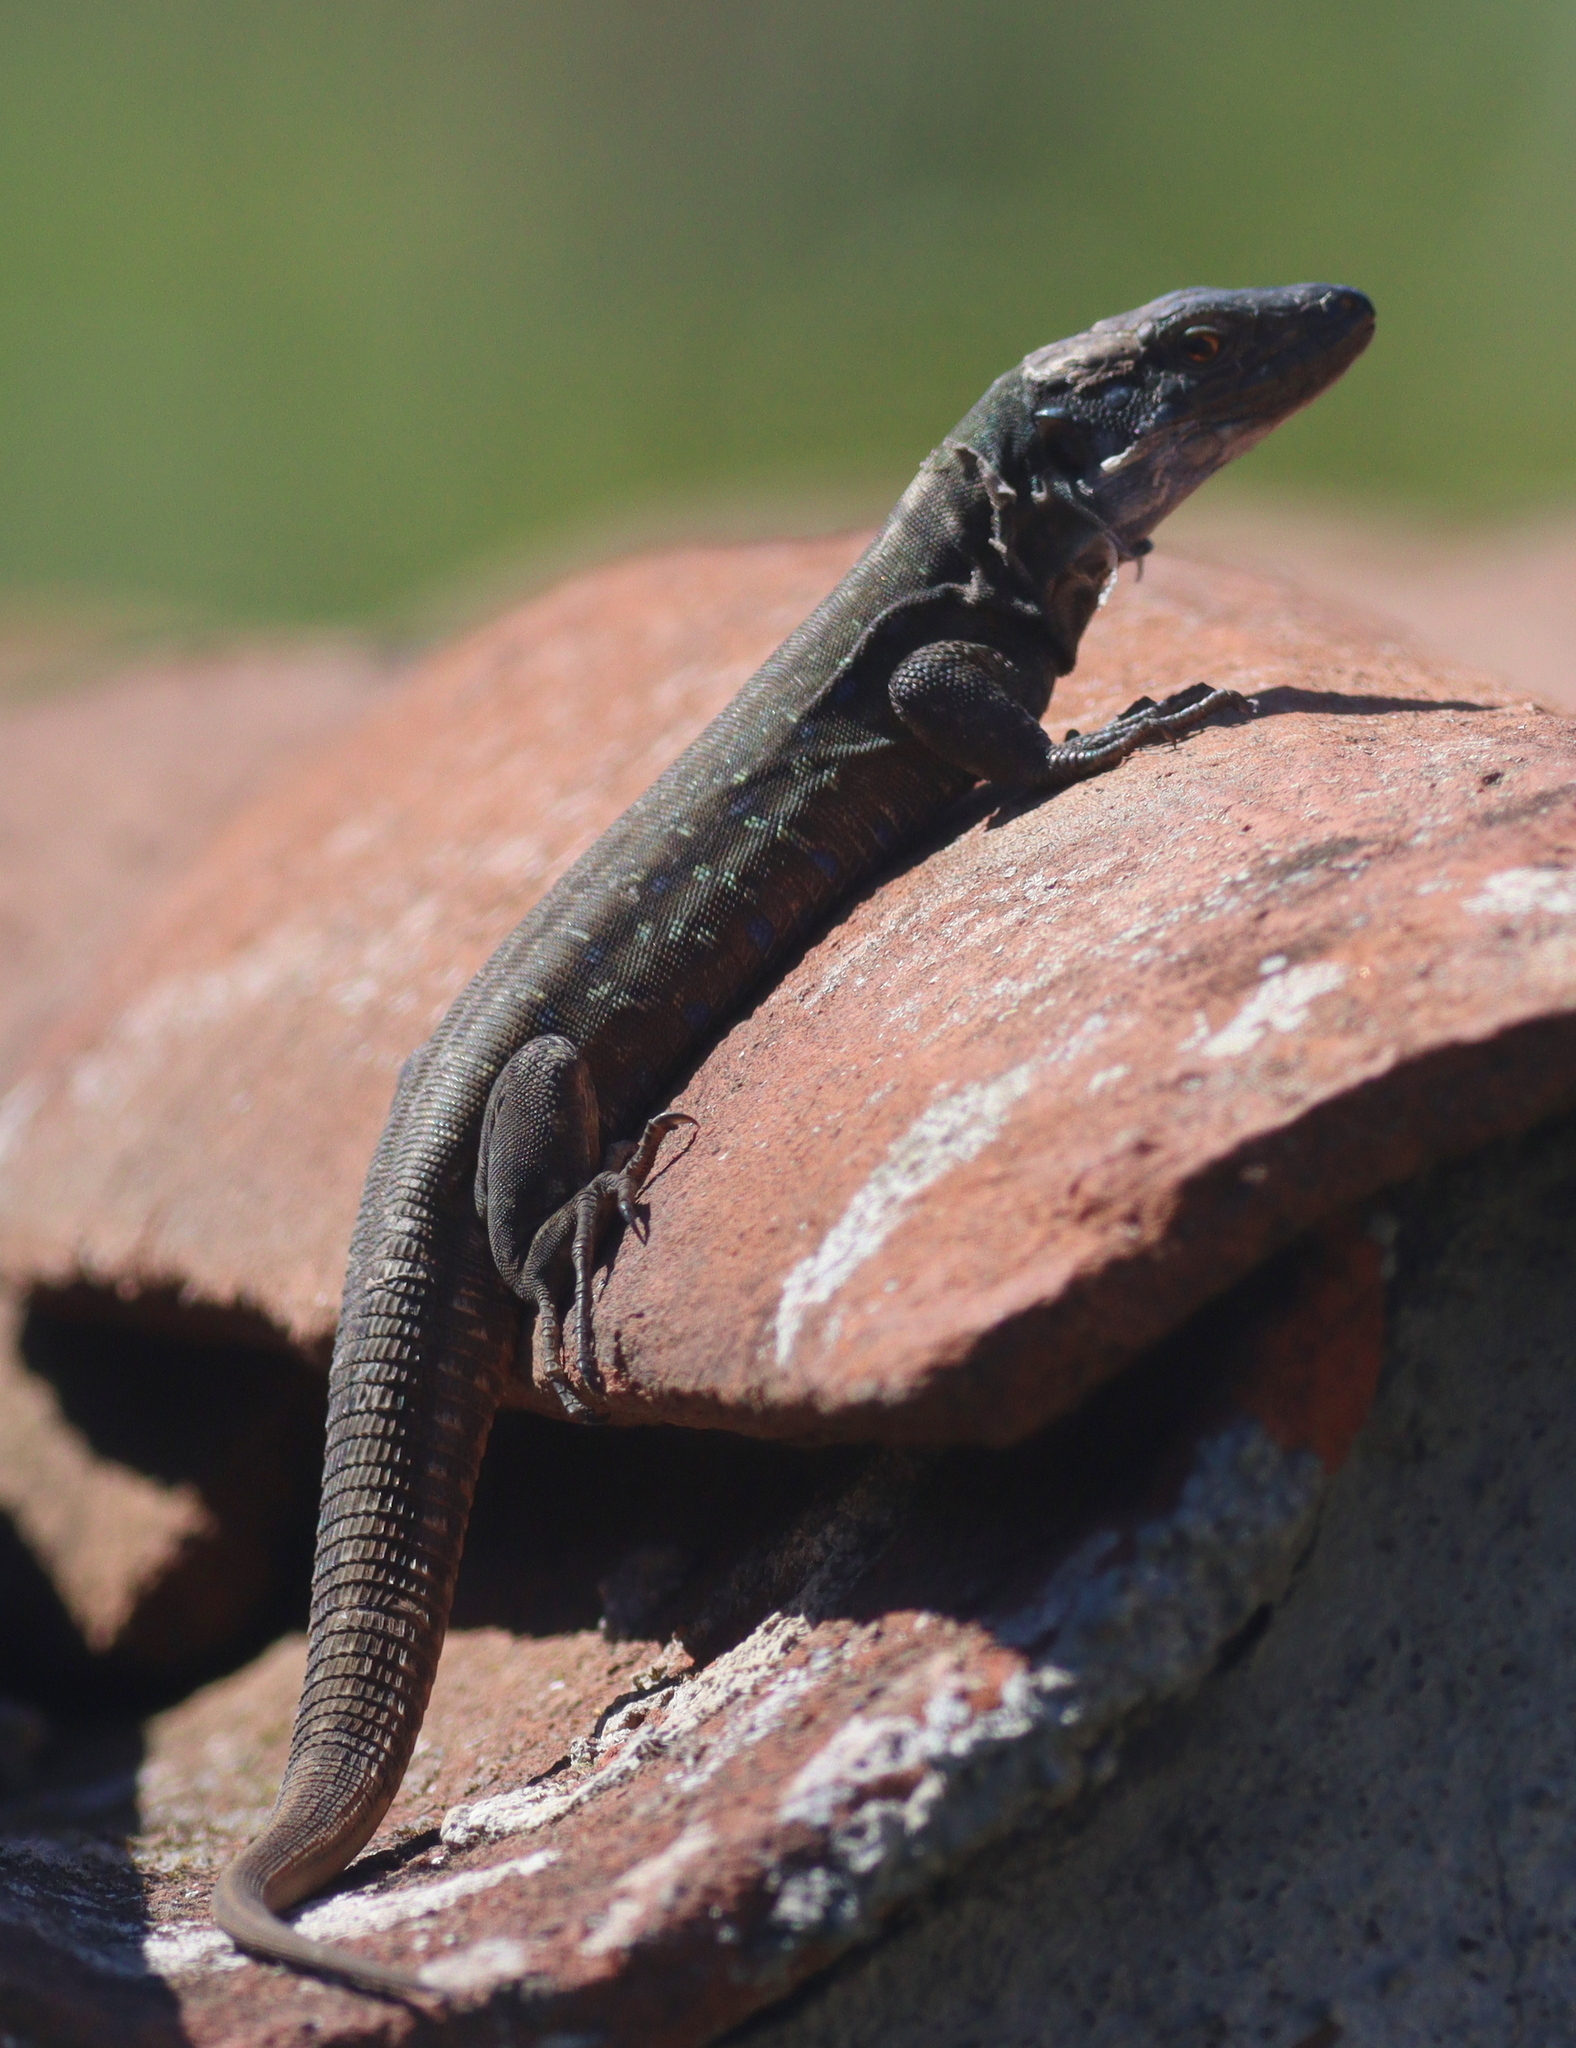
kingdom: Animalia
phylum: Chordata
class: Squamata
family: Lacertidae
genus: Gallotia
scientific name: Gallotia galloti
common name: Gallot's lizard
